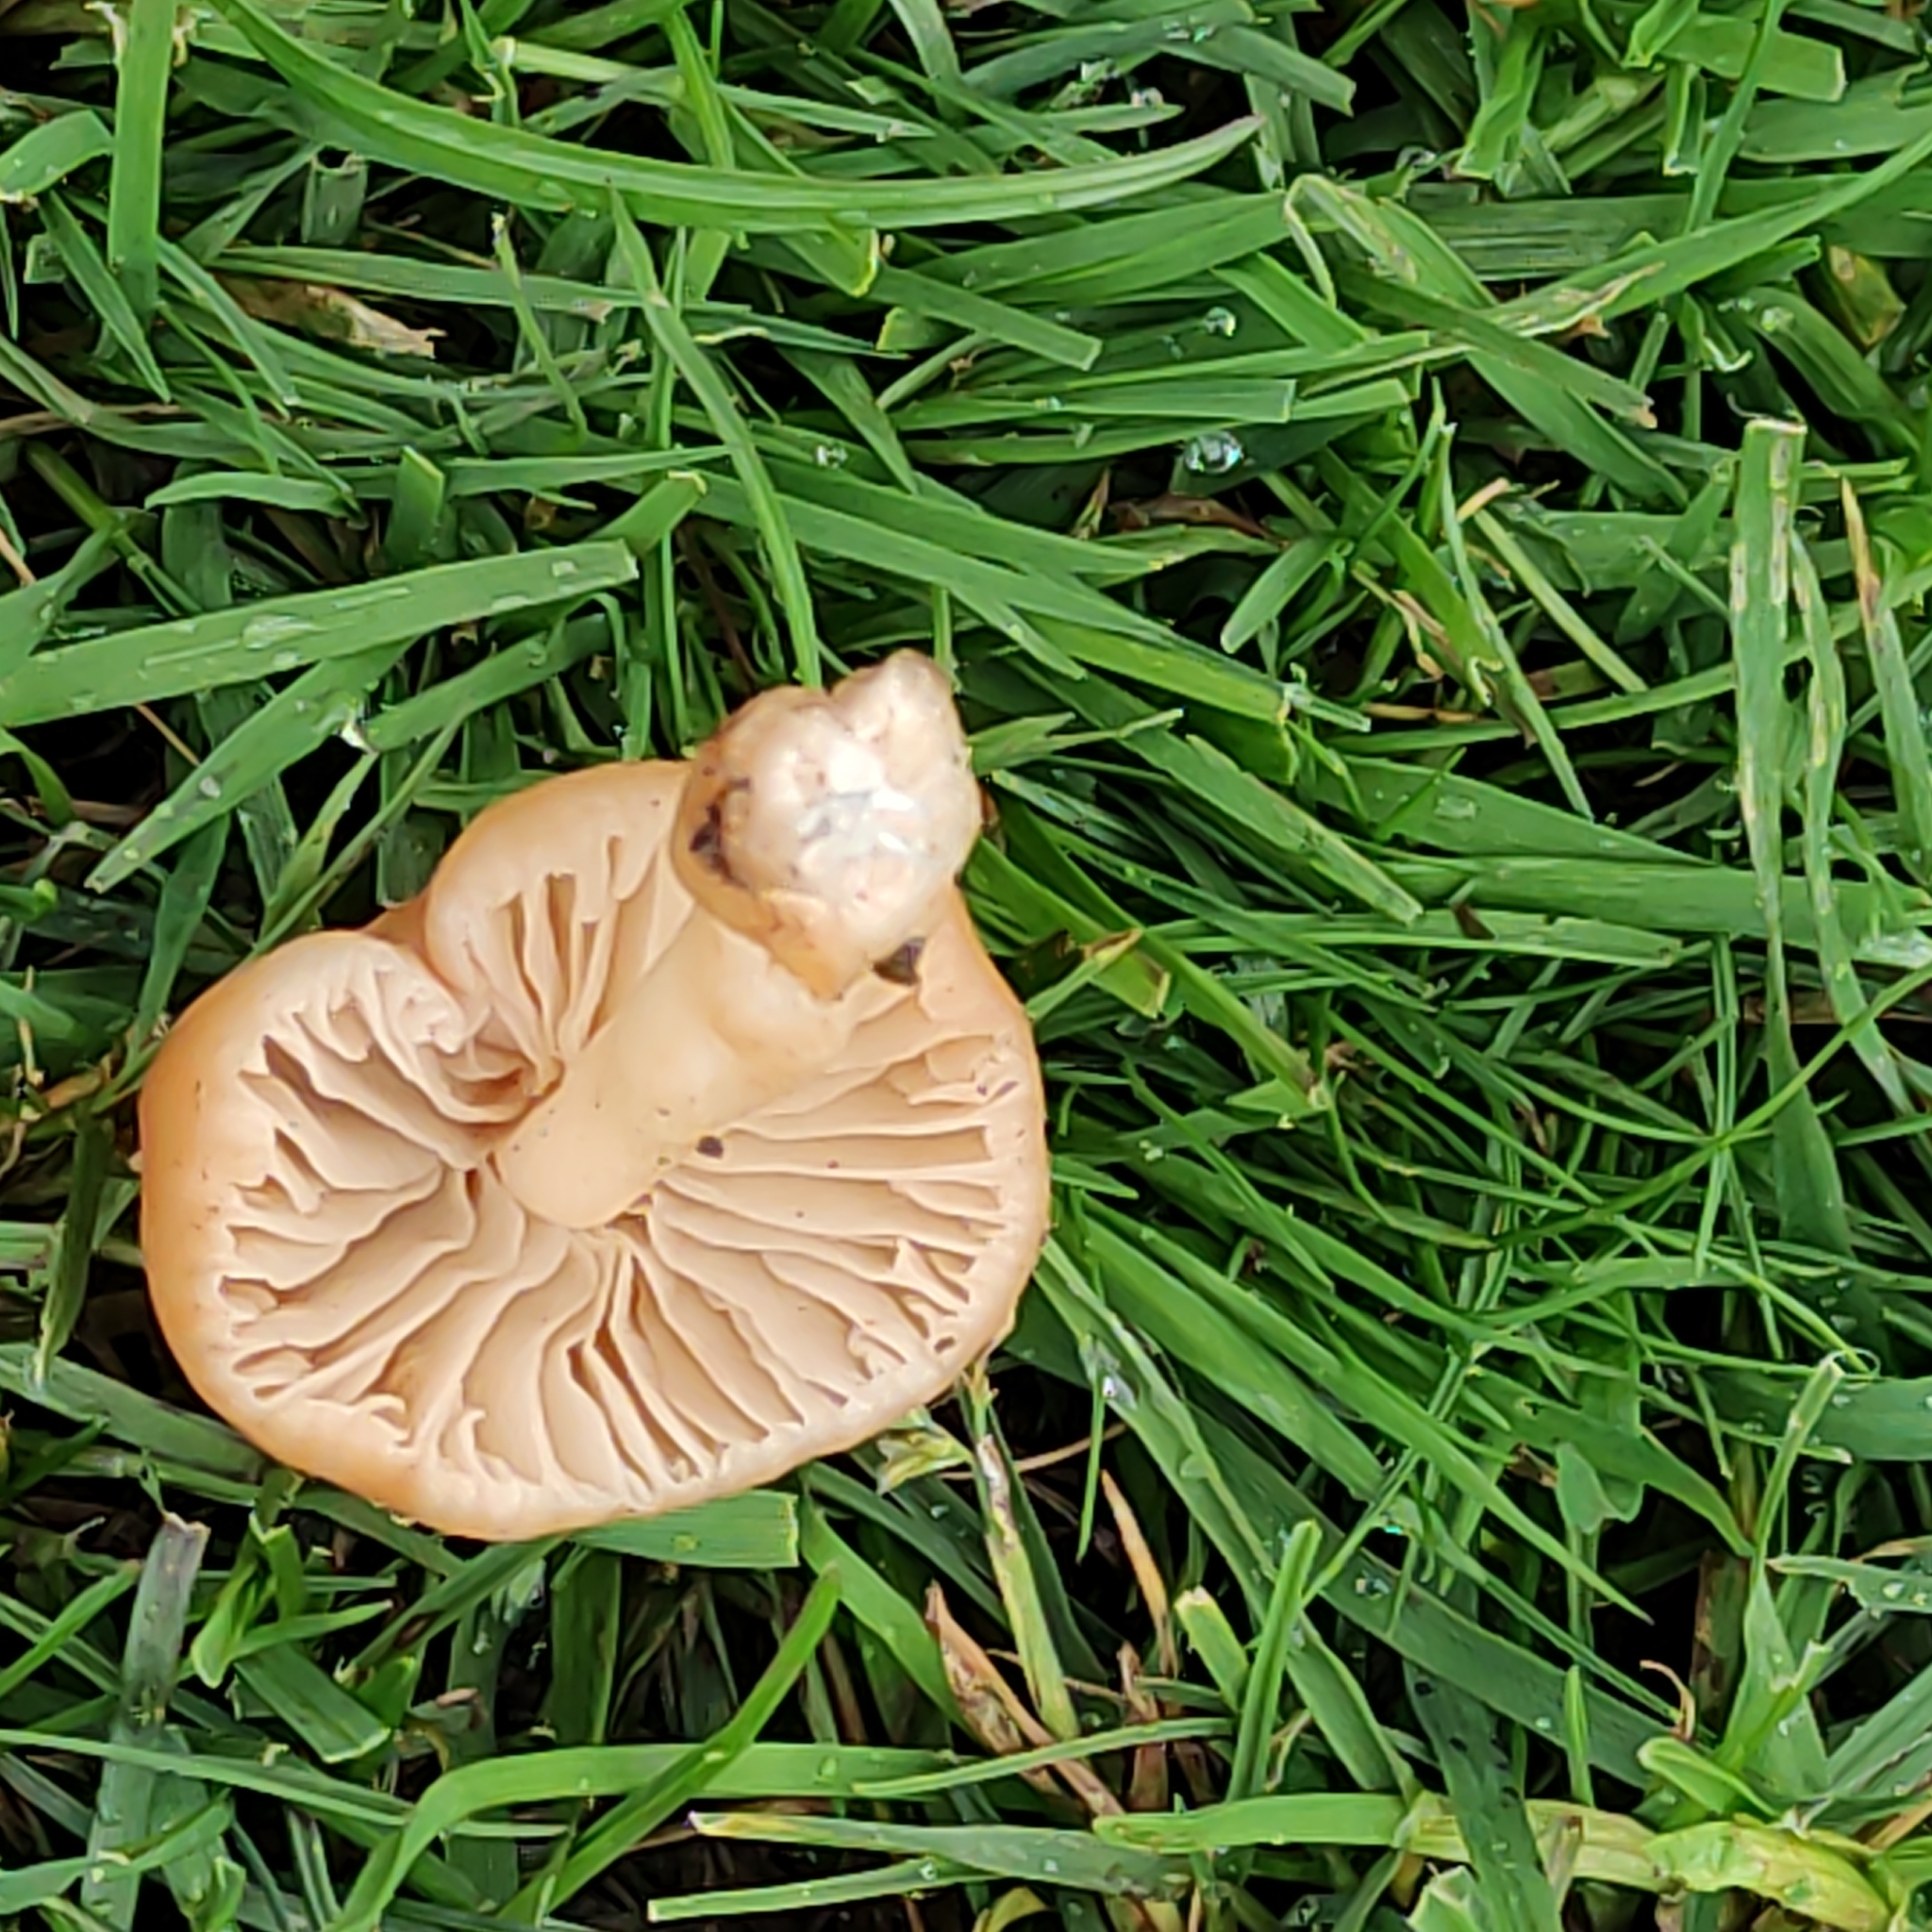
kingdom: Fungi
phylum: Basidiomycota
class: Agaricomycetes
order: Agaricales
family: Marasmiaceae
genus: Marasmius
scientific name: Marasmius oreades
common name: Fairy ring champignon
